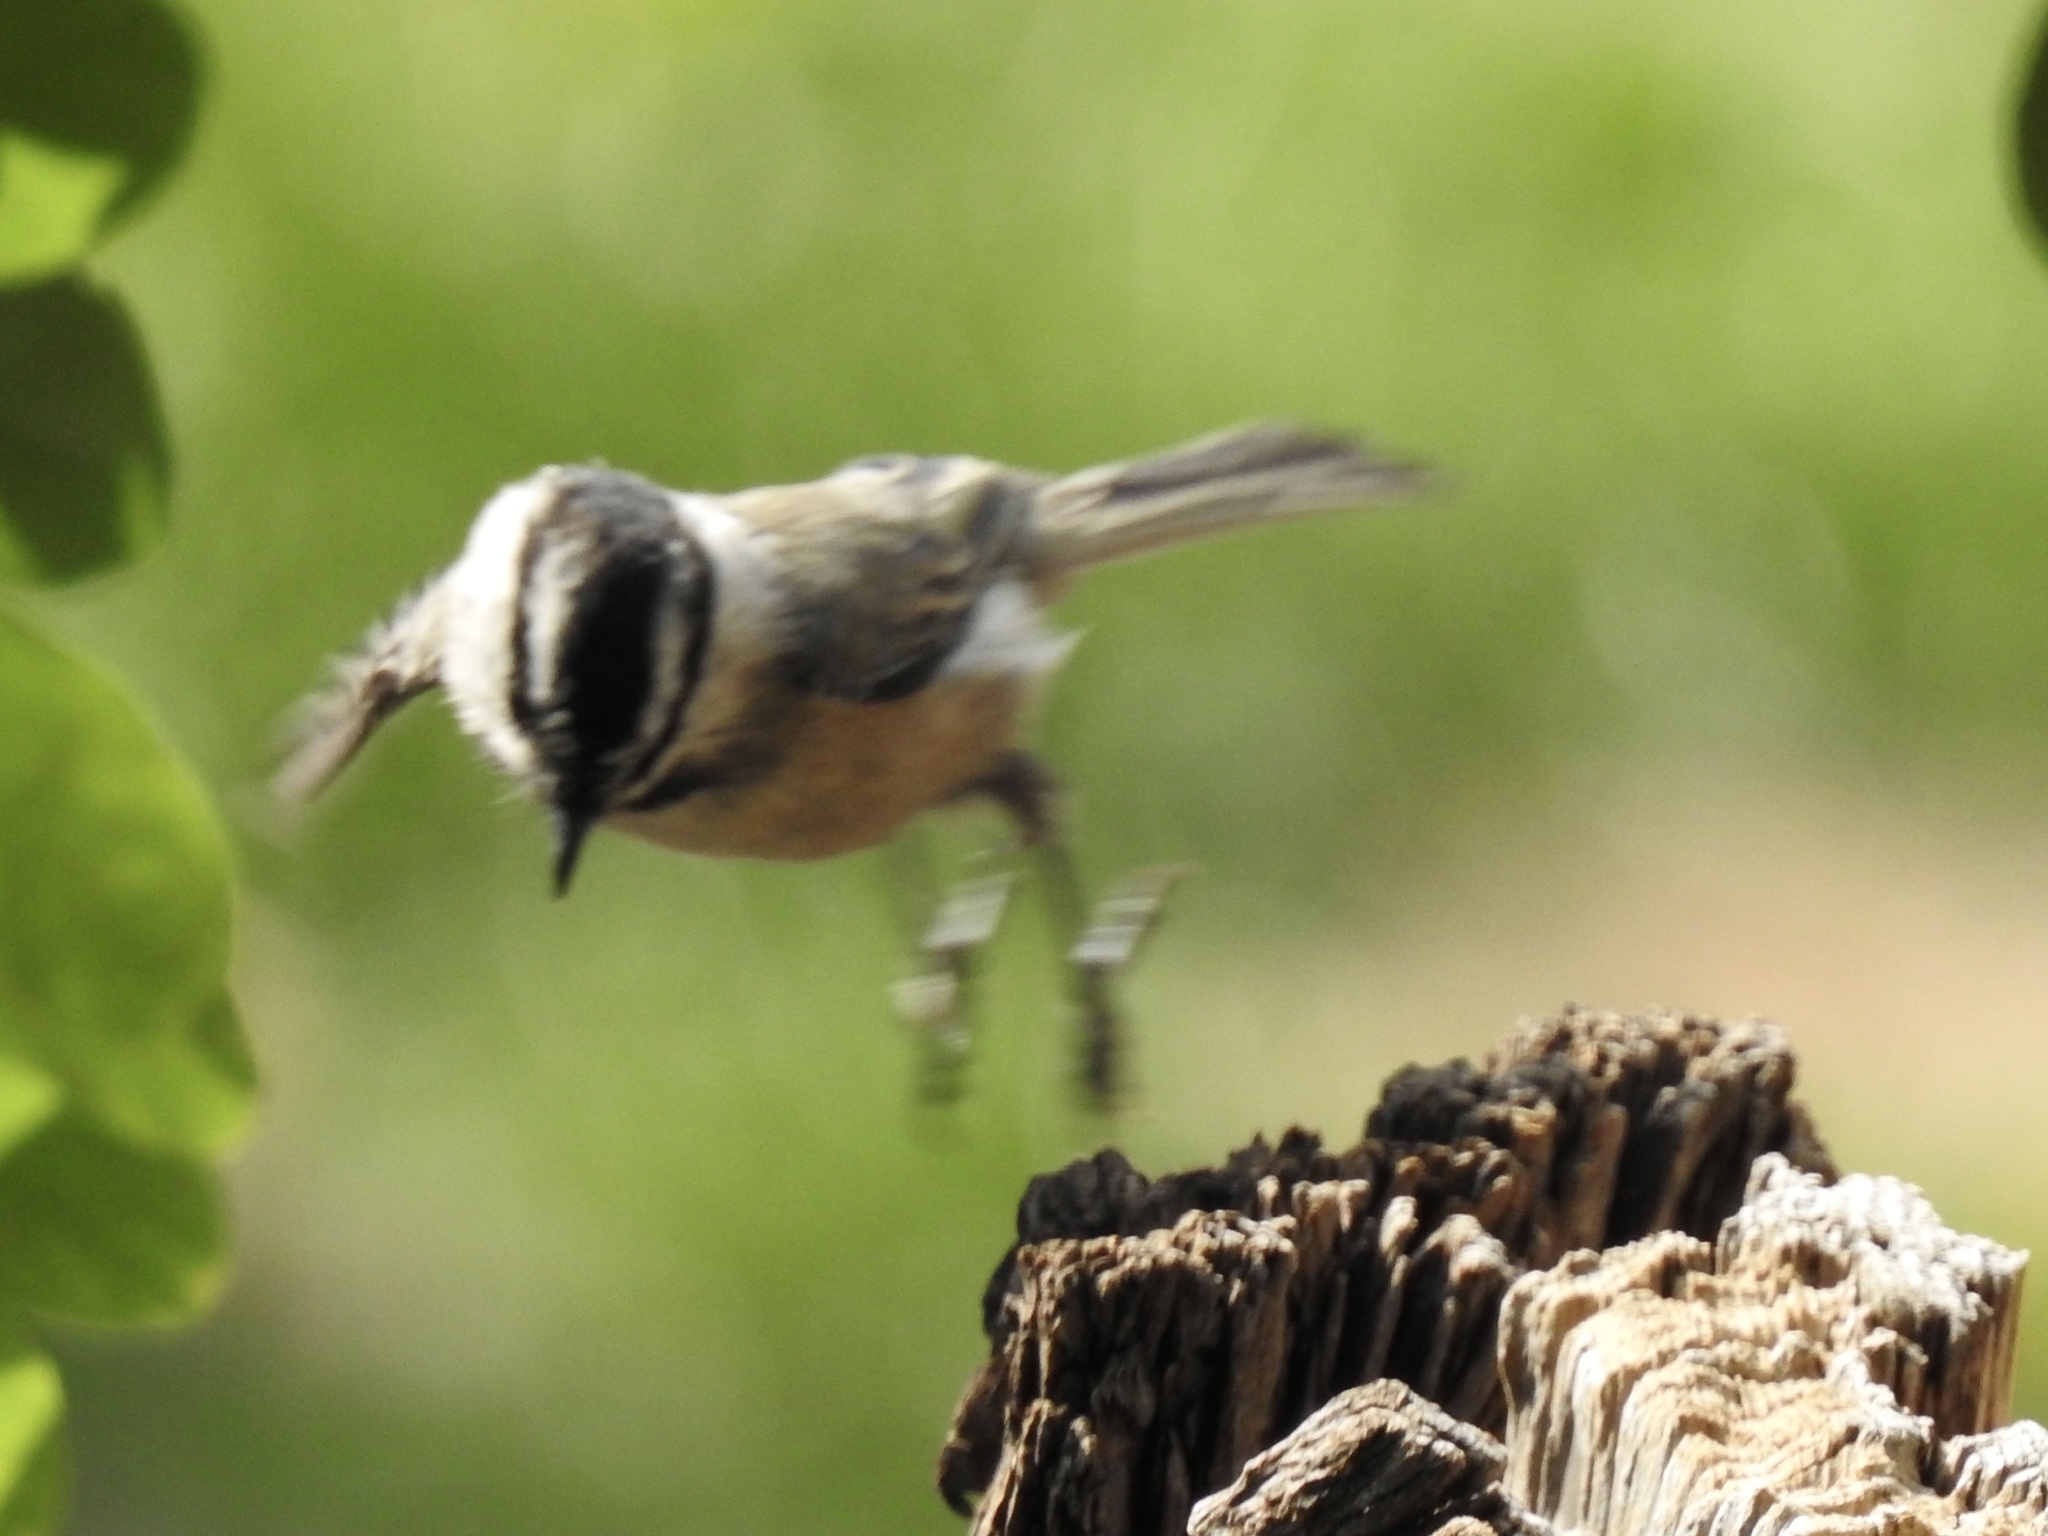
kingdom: Animalia
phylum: Chordata
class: Aves
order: Passeriformes
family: Paridae
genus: Poecile
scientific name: Poecile gambeli
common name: Mountain chickadee
